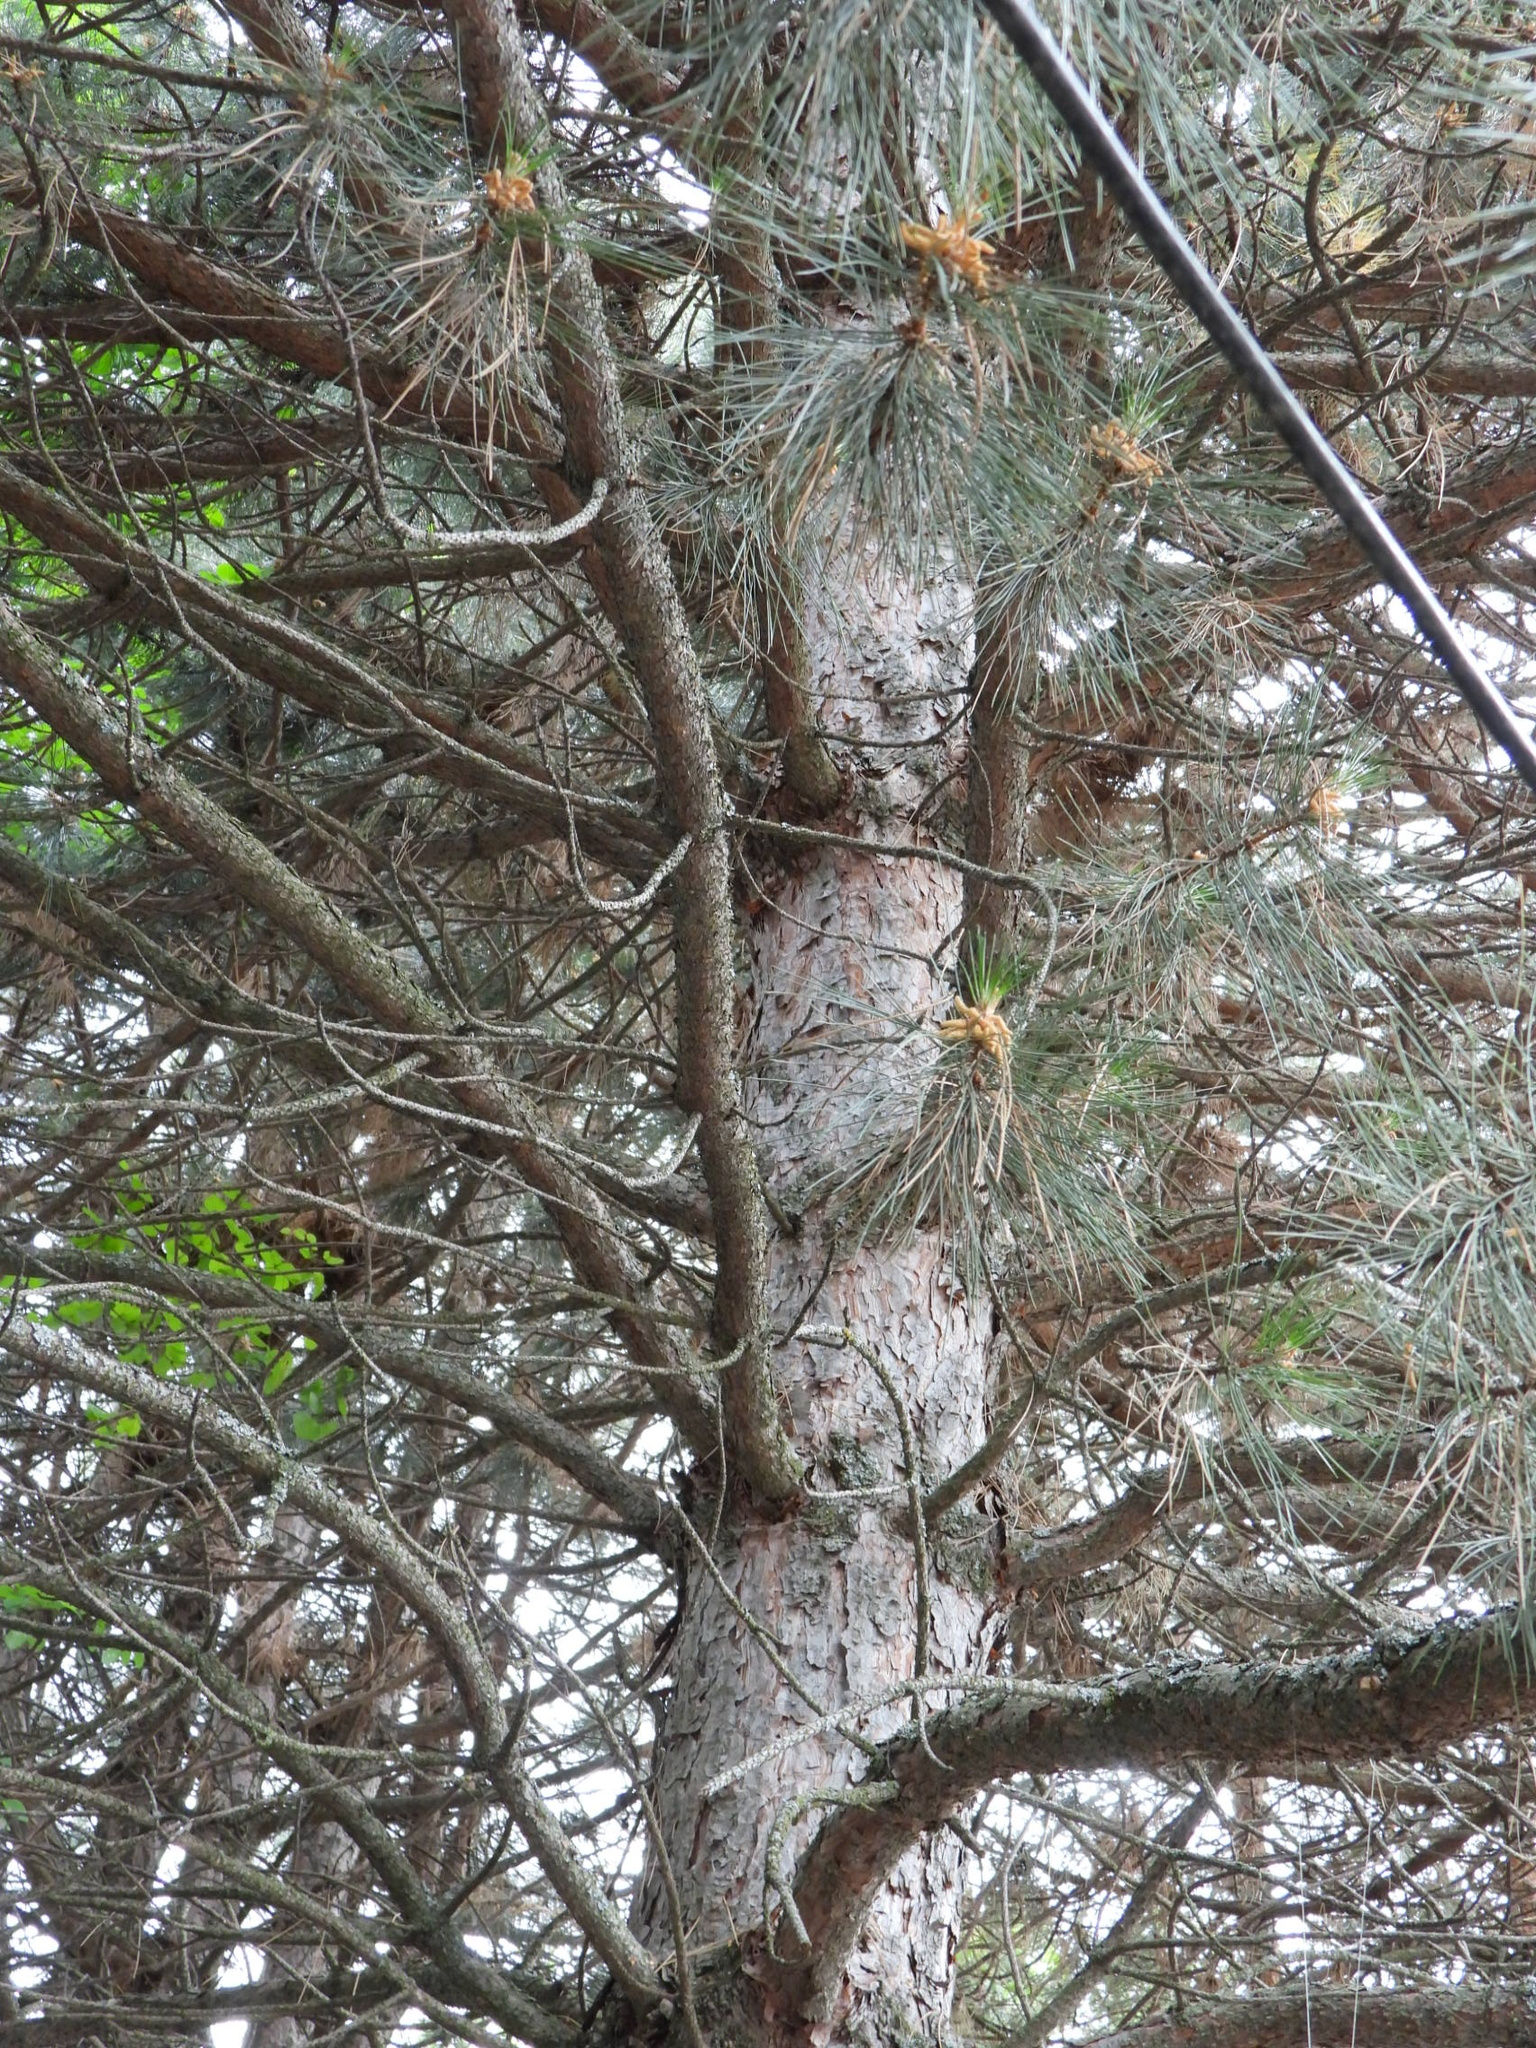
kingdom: Plantae
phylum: Tracheophyta
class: Pinopsida
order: Pinales
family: Pinaceae
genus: Pinus
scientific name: Pinus ponderosa
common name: Western yellow-pine
